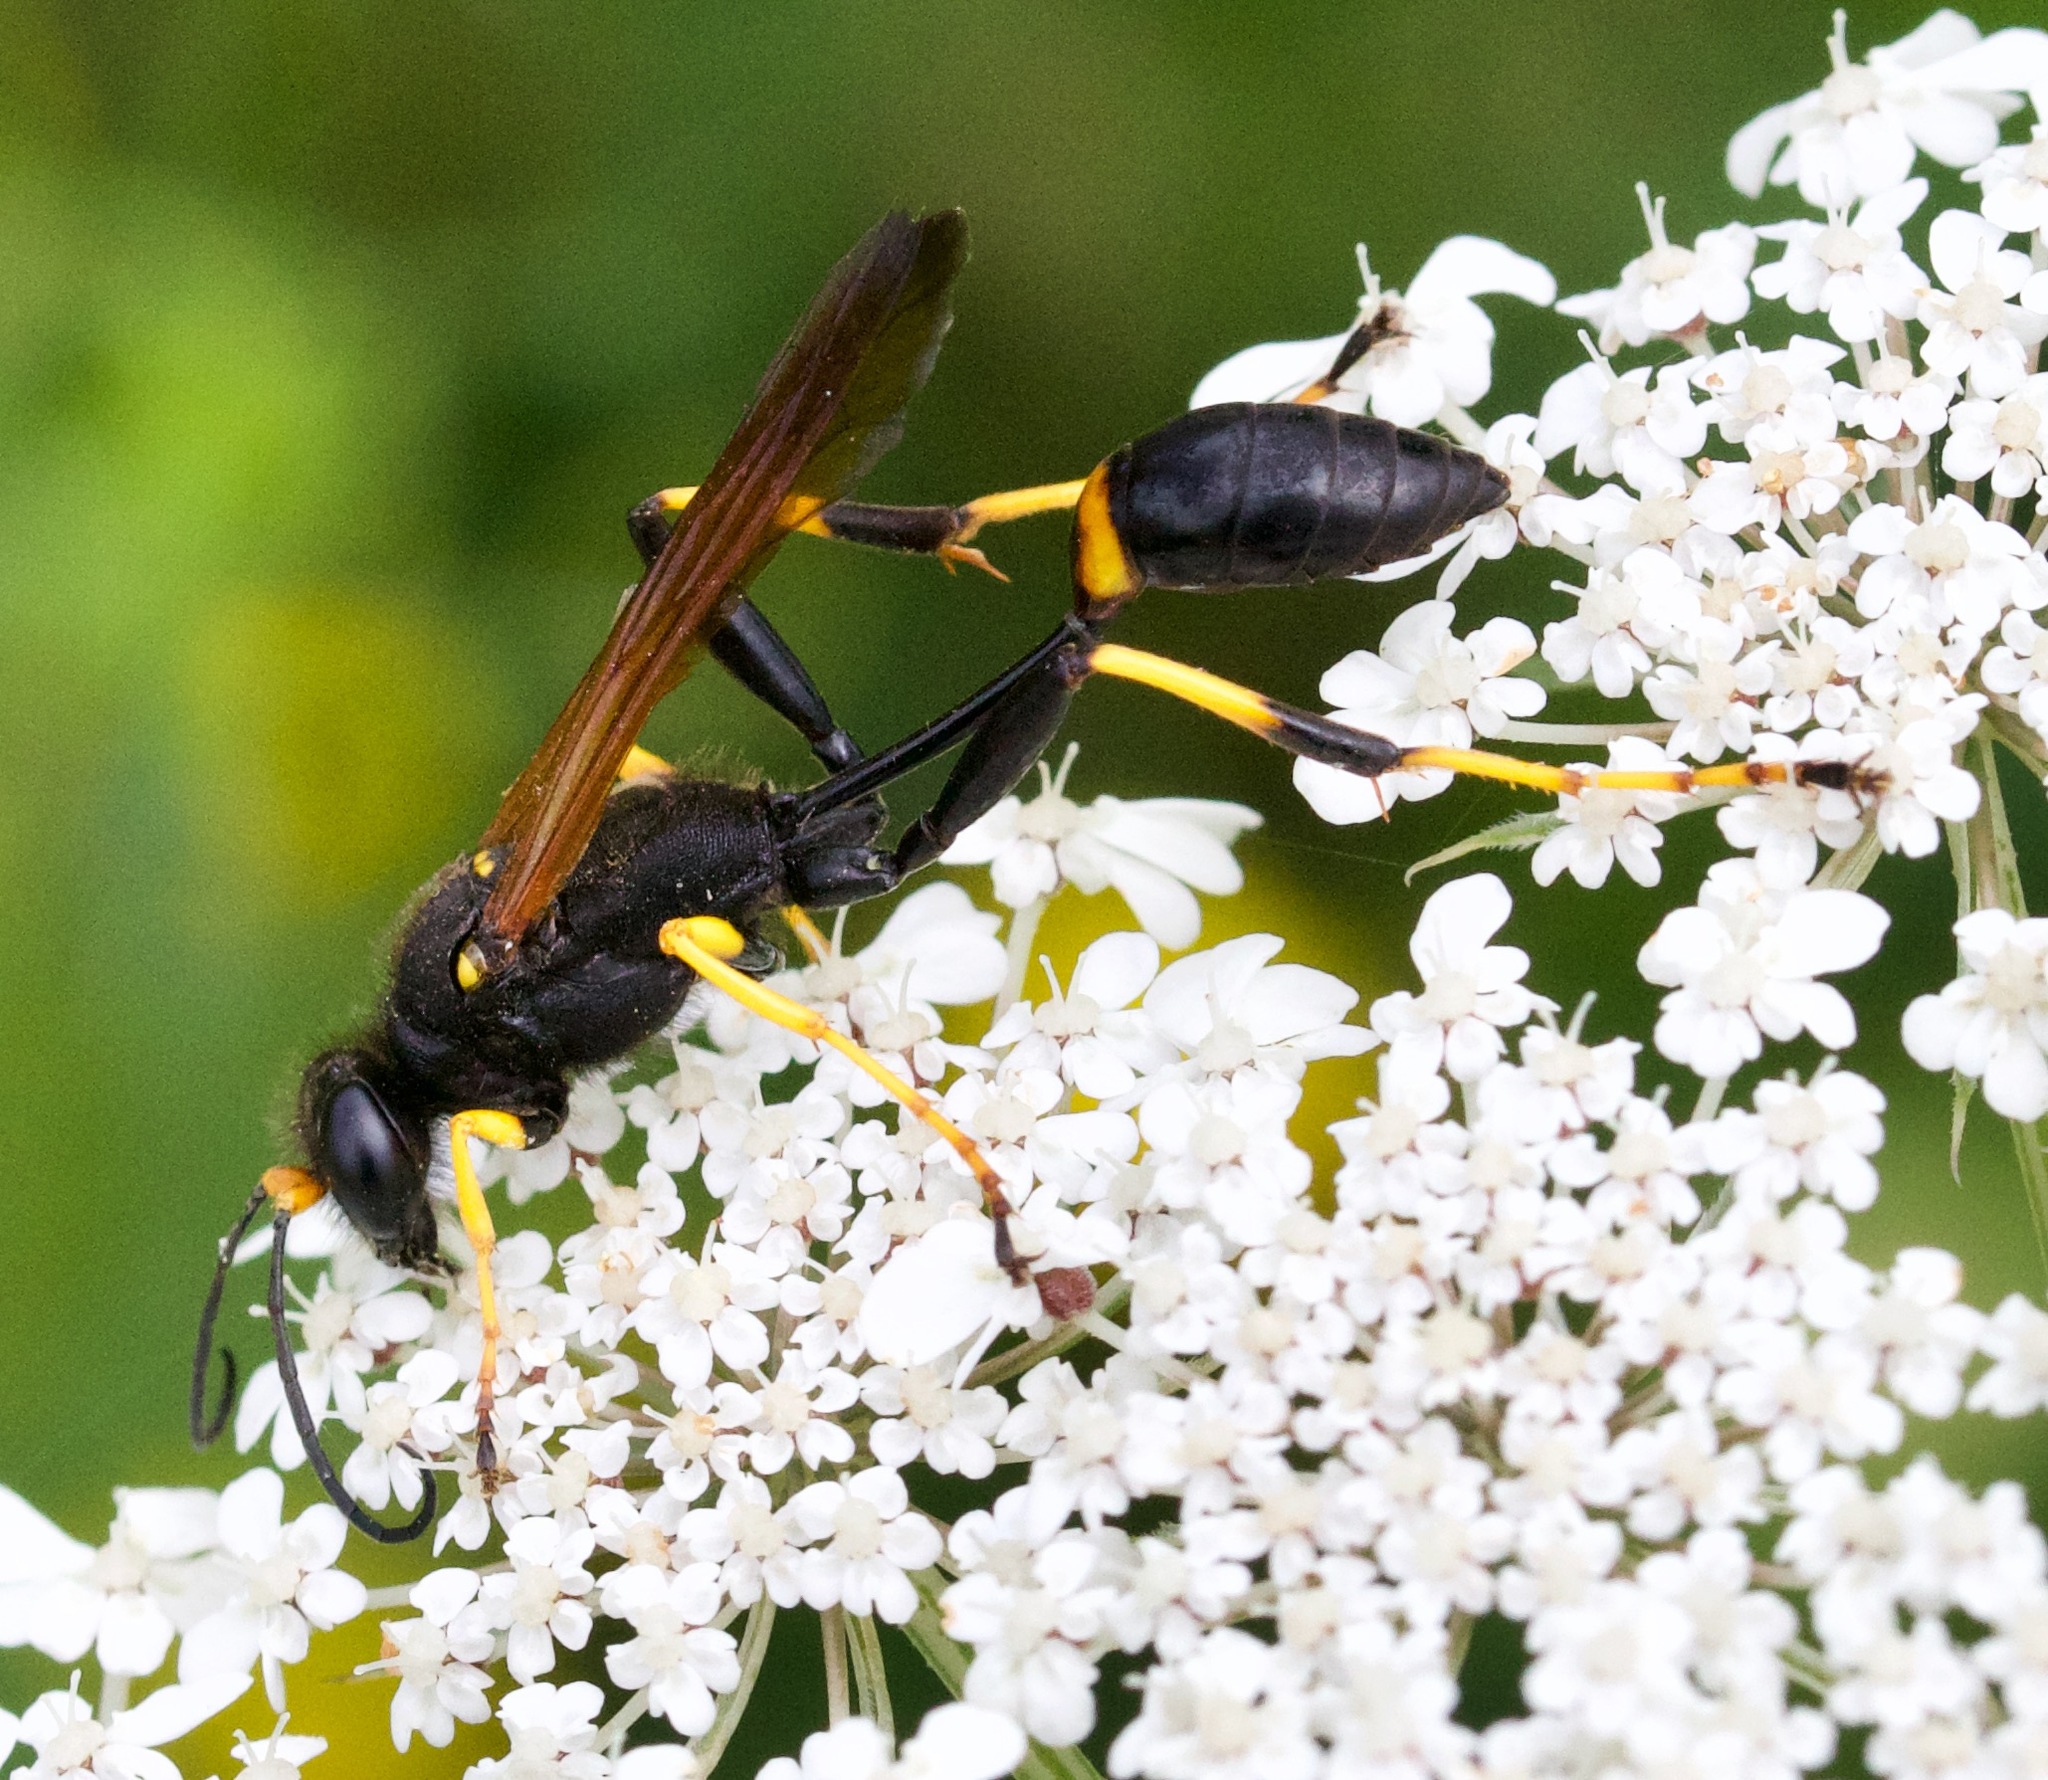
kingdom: Animalia
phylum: Arthropoda
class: Insecta
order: Hymenoptera
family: Sphecidae
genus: Sceliphron
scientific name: Sceliphron caementarium
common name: Mud dauber
